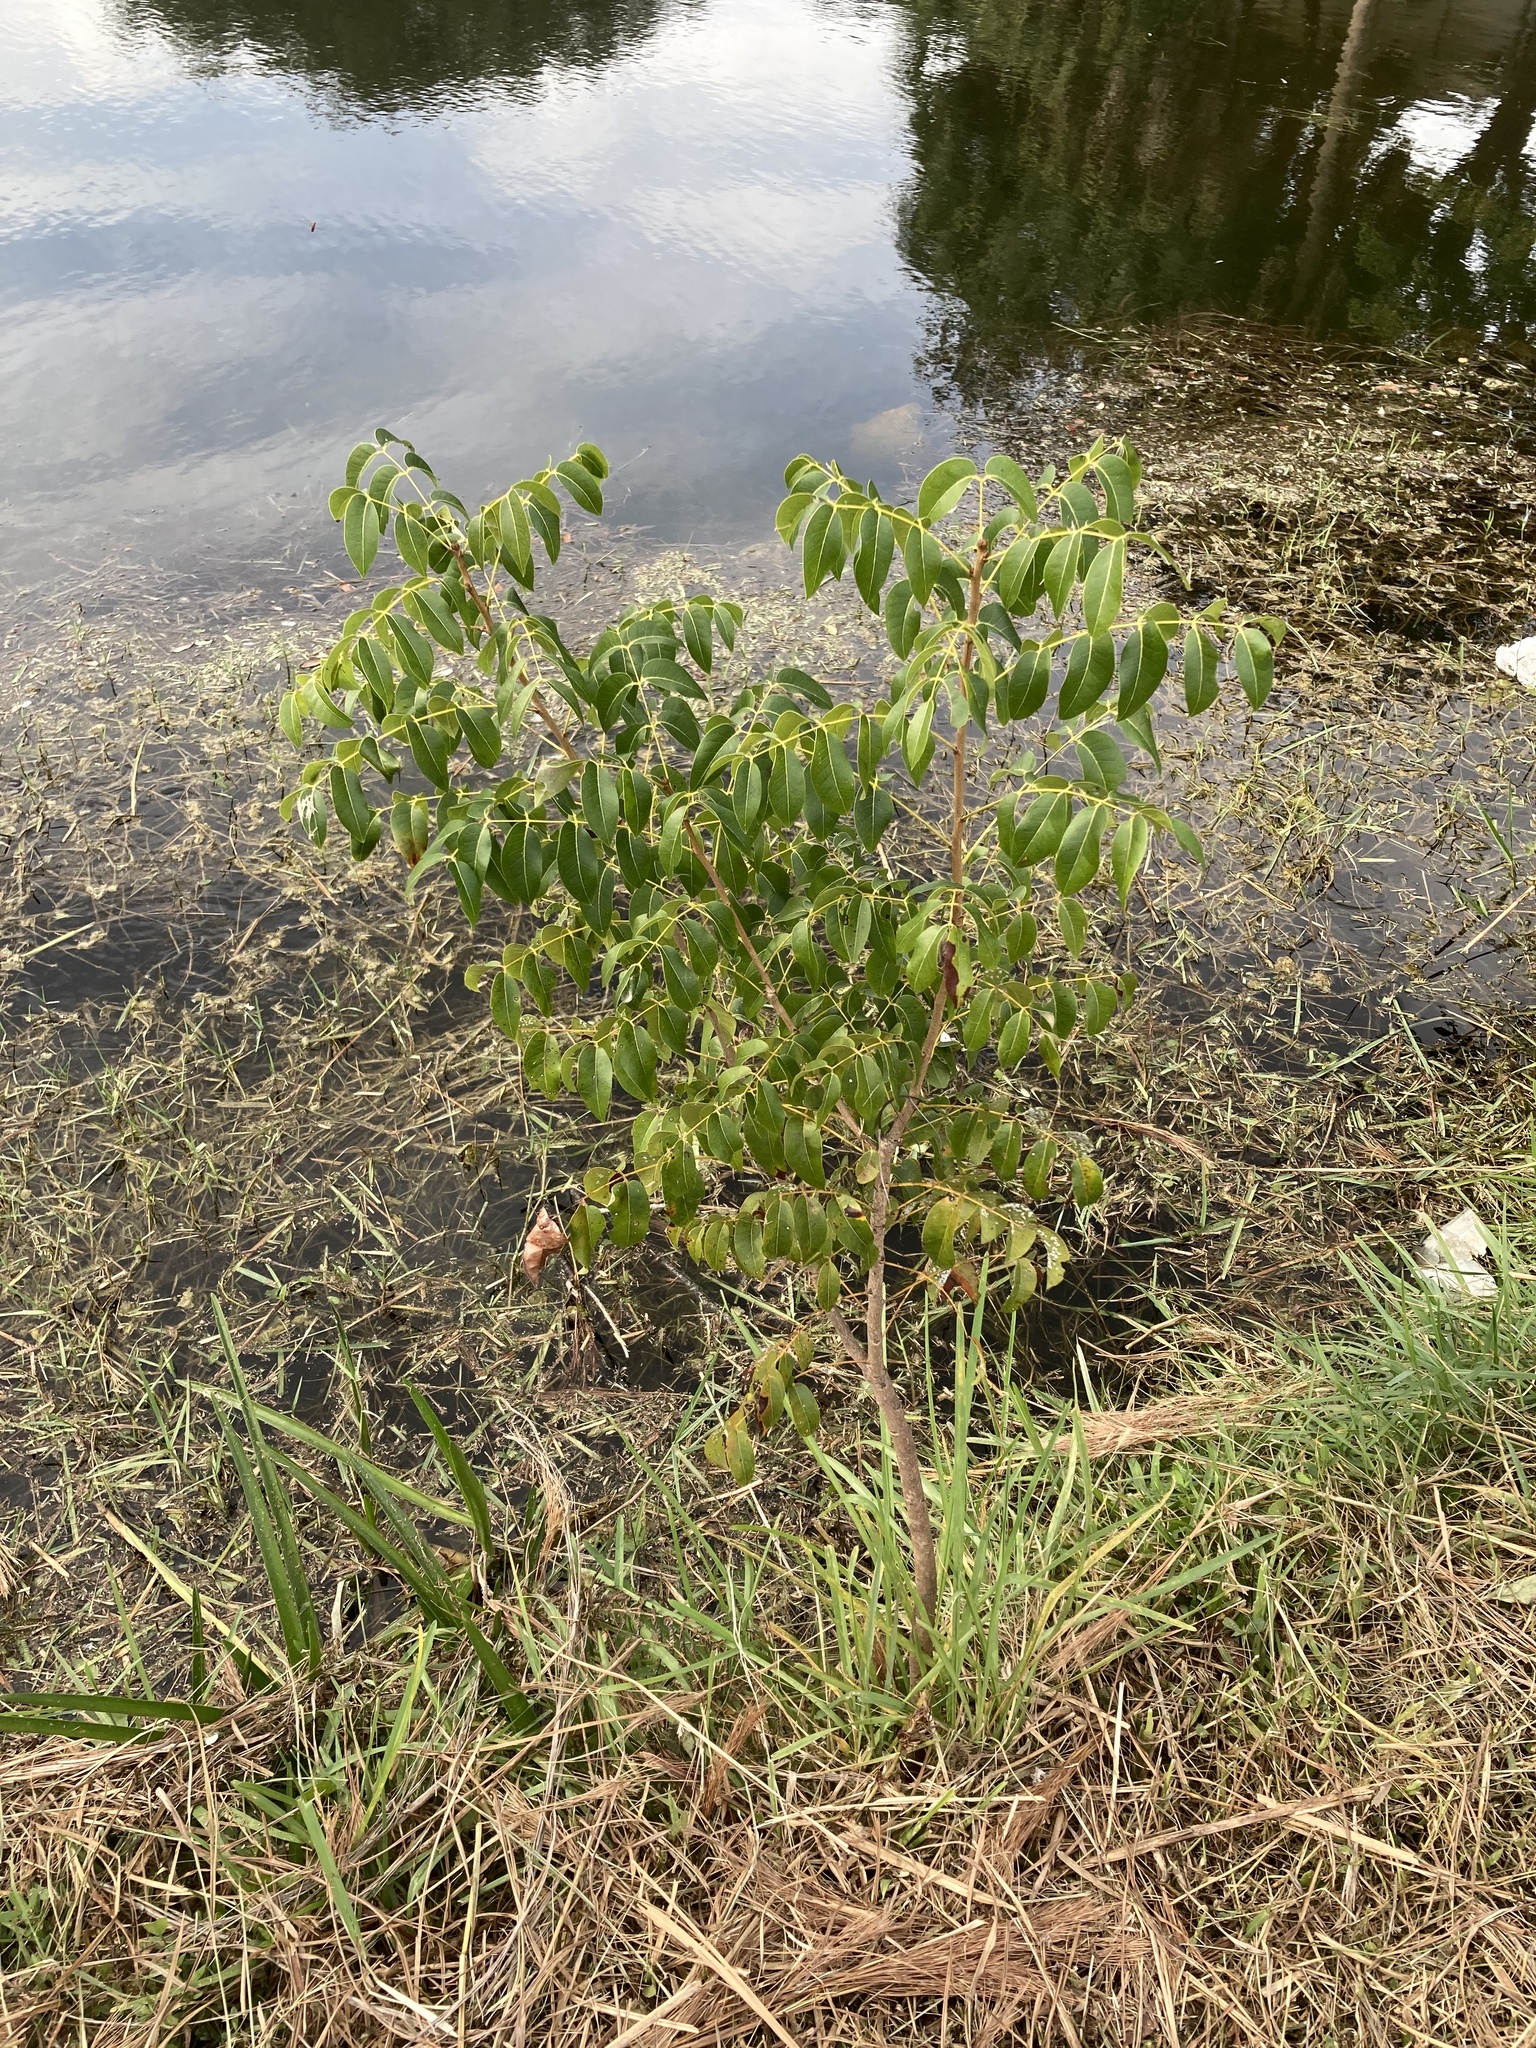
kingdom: Plantae
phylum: Tracheophyta
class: Magnoliopsida
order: Sapindales
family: Meliaceae
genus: Swietenia
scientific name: Swietenia mahagoni
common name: West indian mahogany
